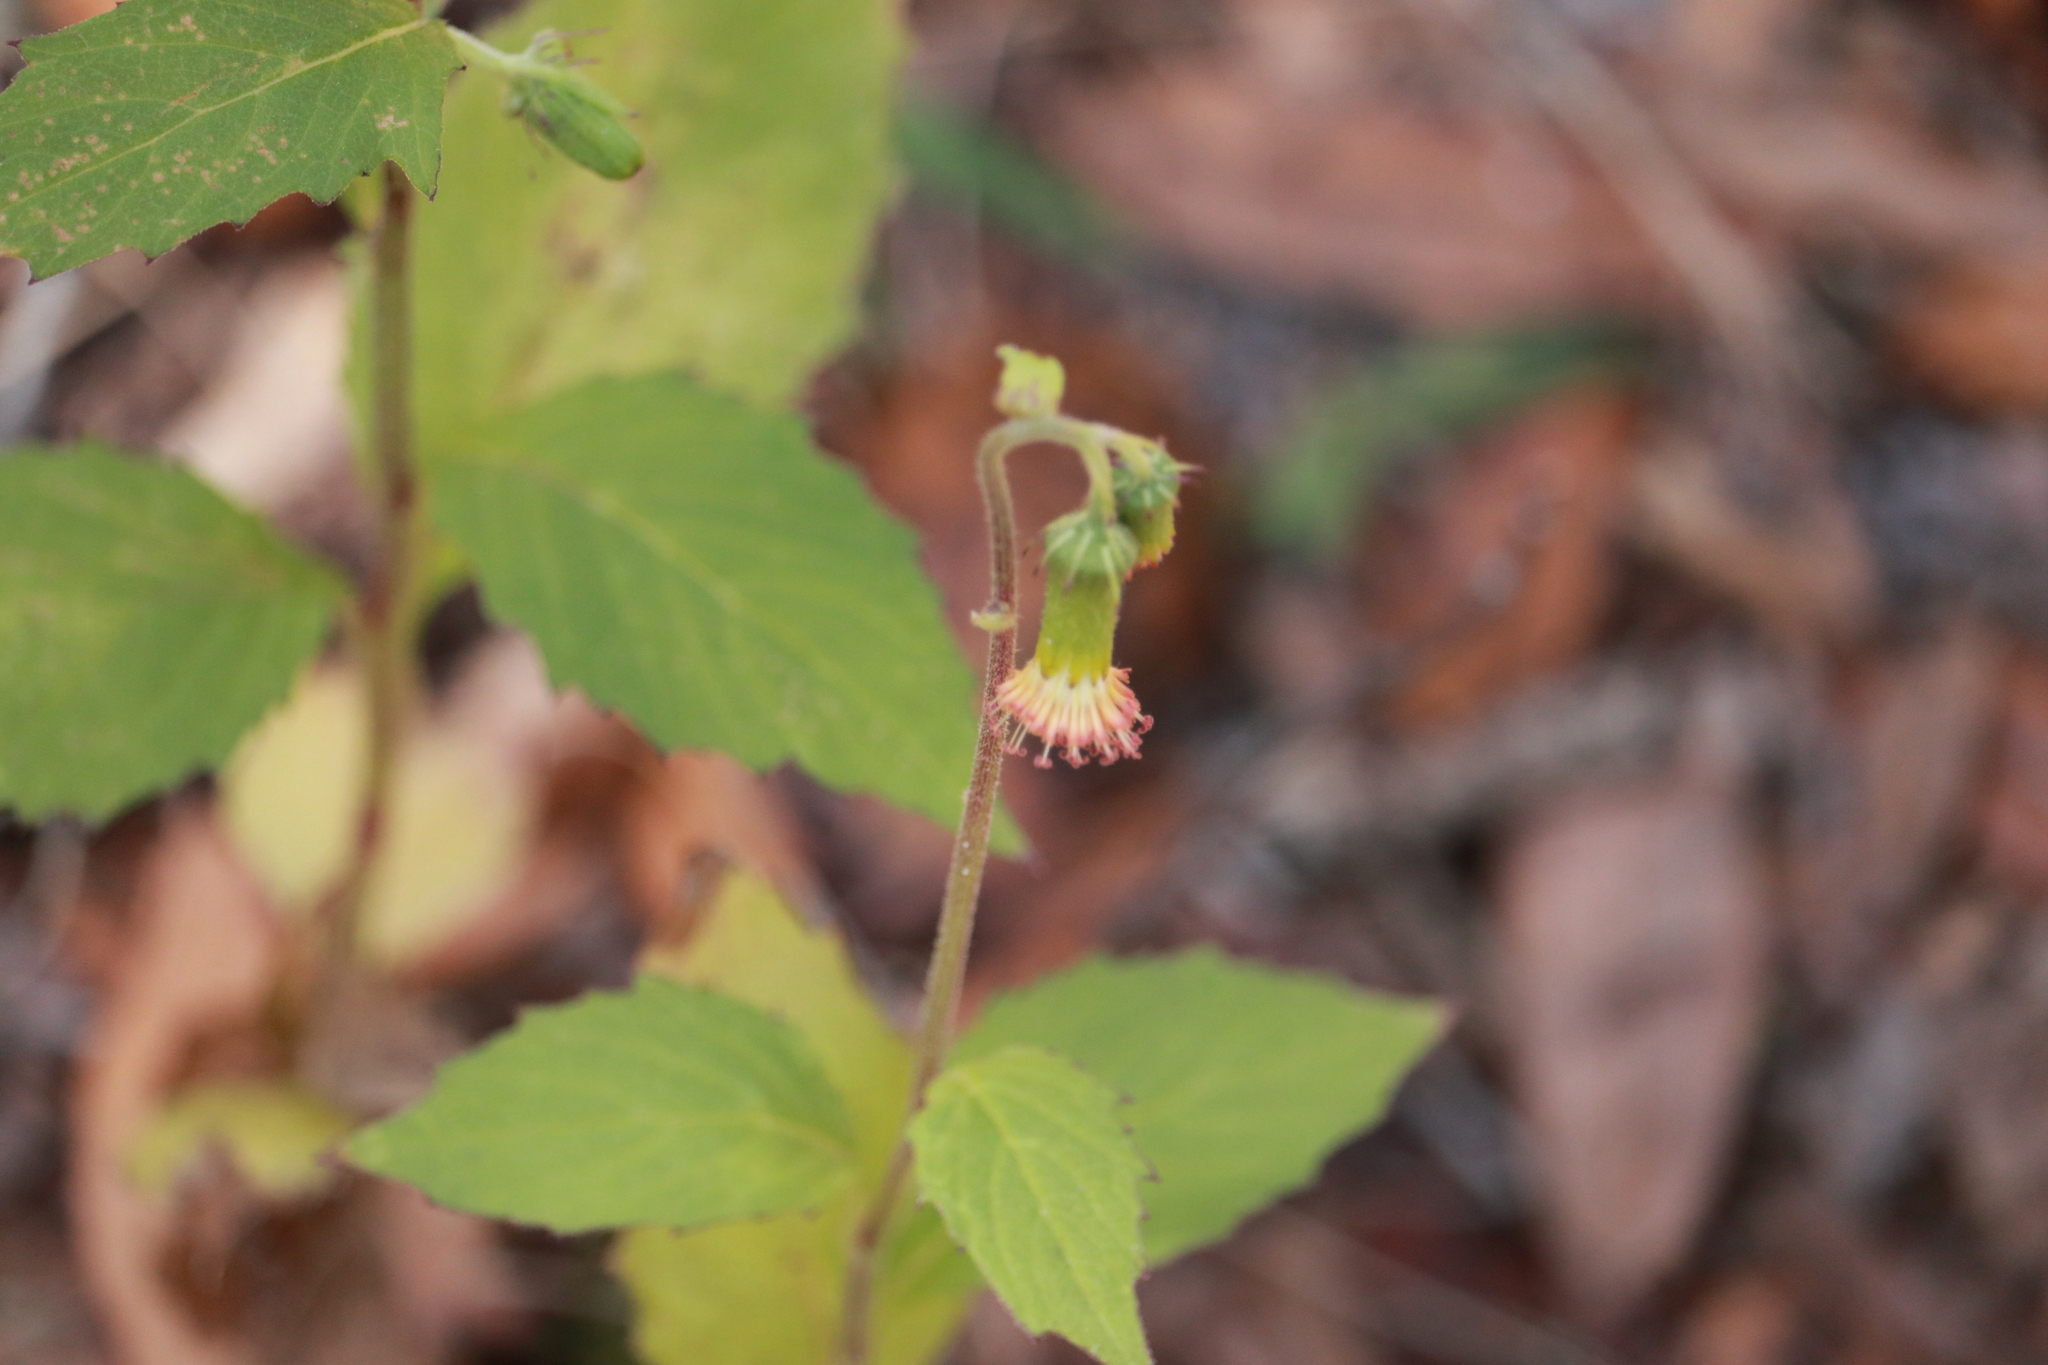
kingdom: Plantae
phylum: Tracheophyta
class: Magnoliopsida
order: Asterales
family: Asteraceae
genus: Crassocephalum
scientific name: Crassocephalum crepidioides
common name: Redflower ragleaf
